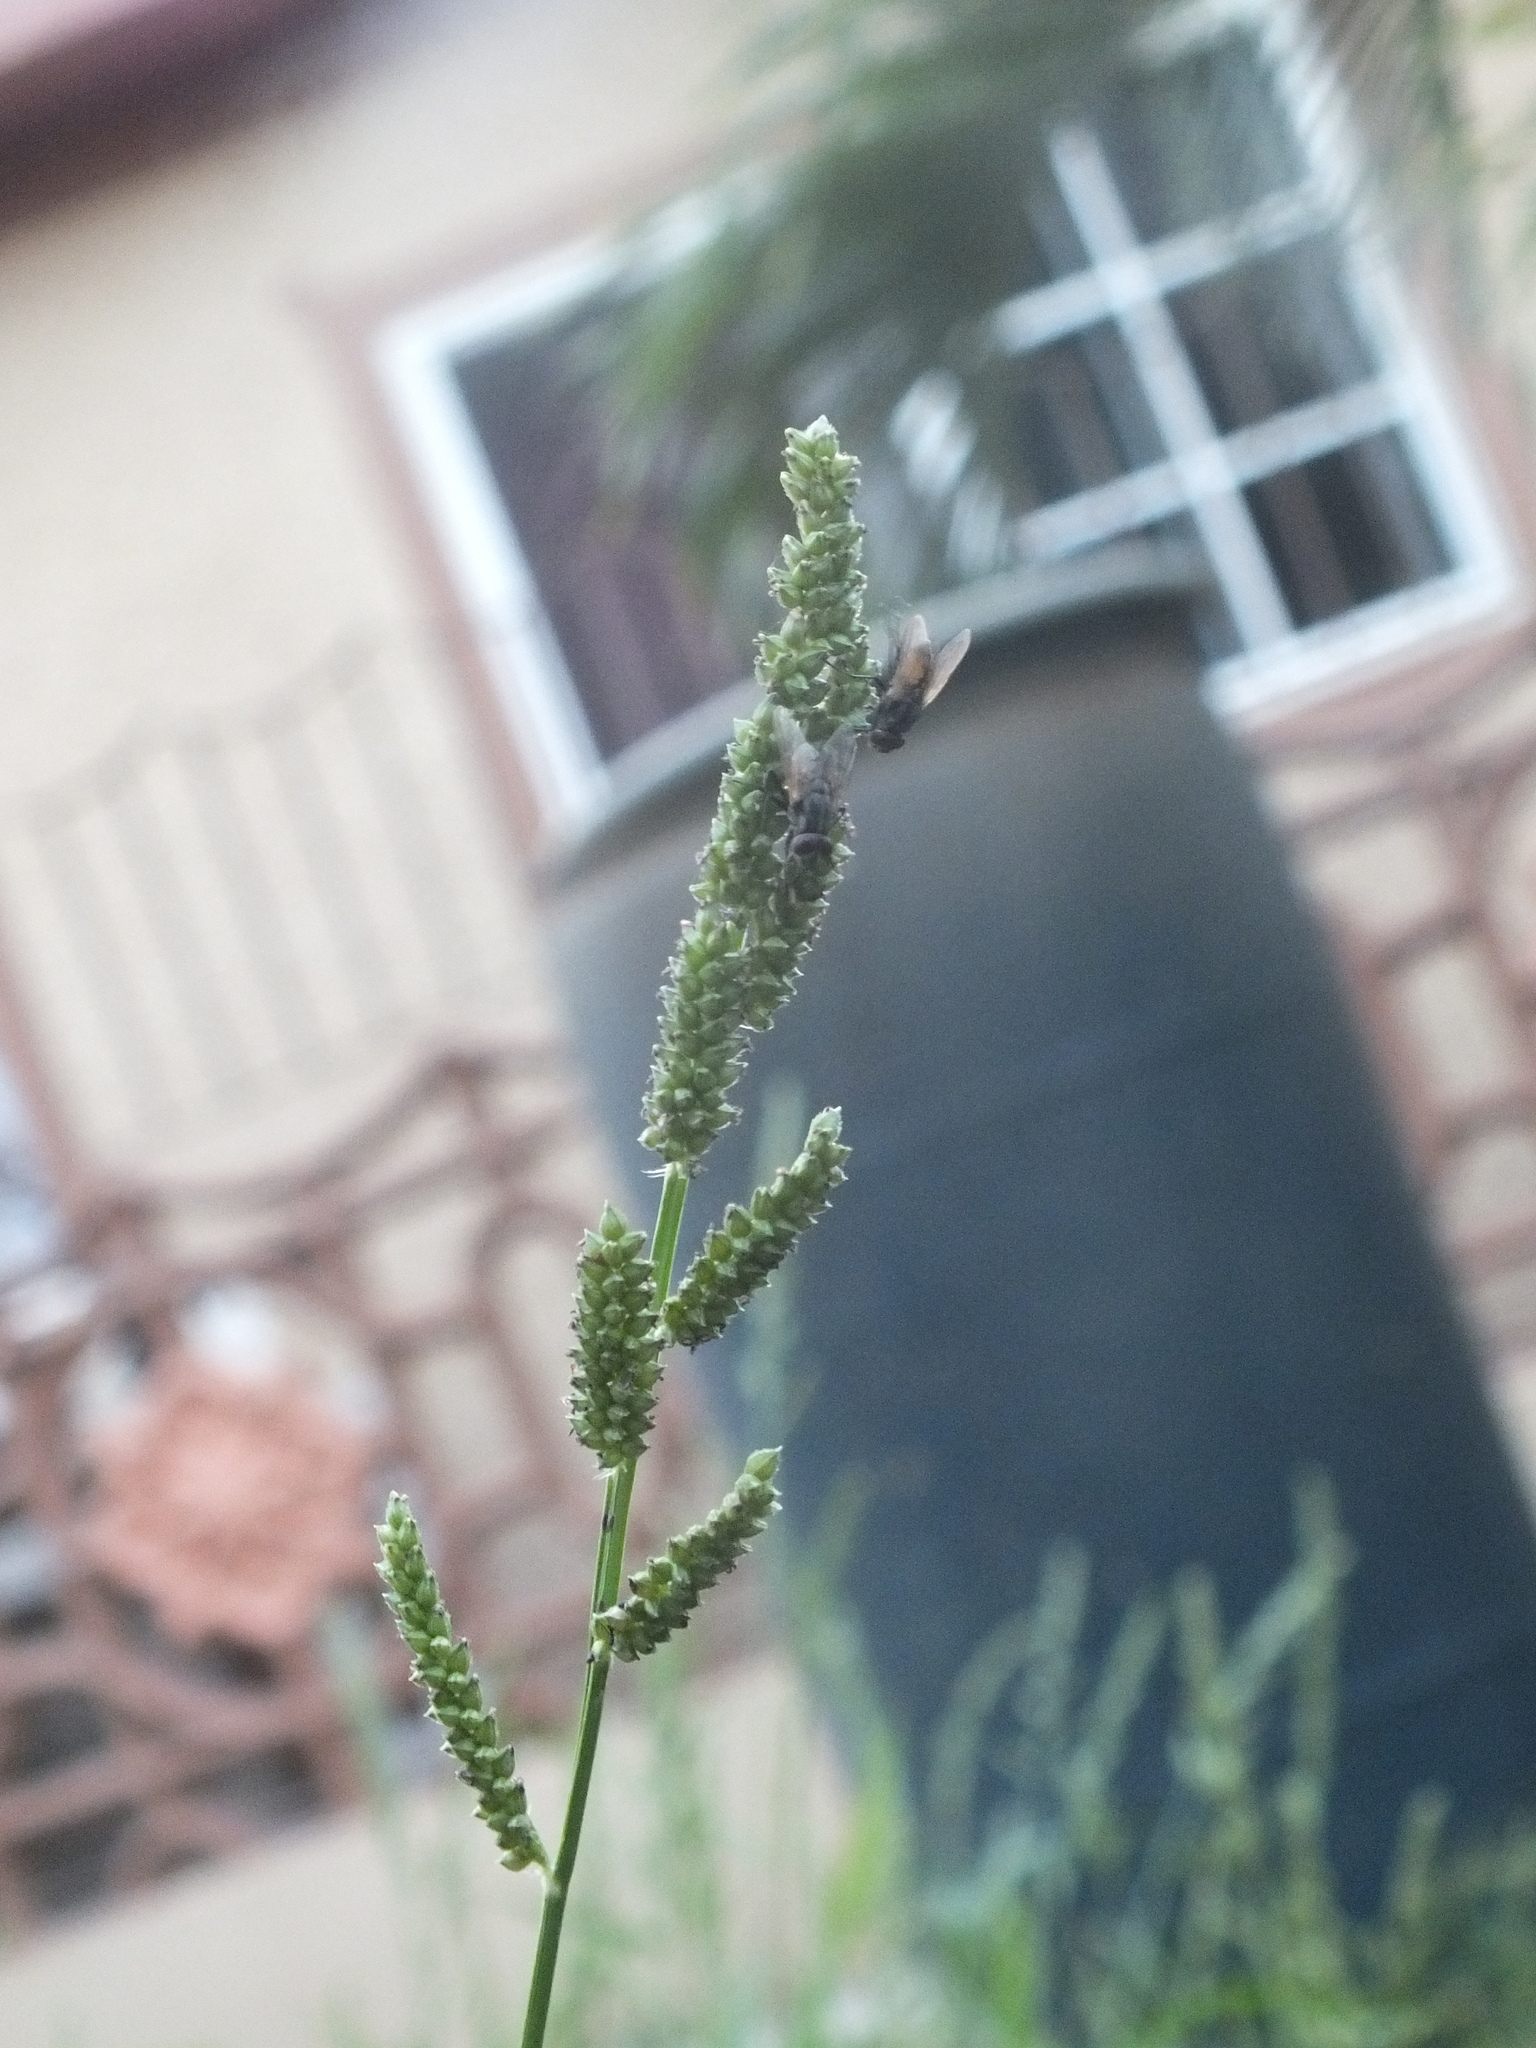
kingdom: Plantae
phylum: Tracheophyta
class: Liliopsida
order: Poales
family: Poaceae
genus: Echinochloa
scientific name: Echinochloa colonum
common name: Jungle rice
